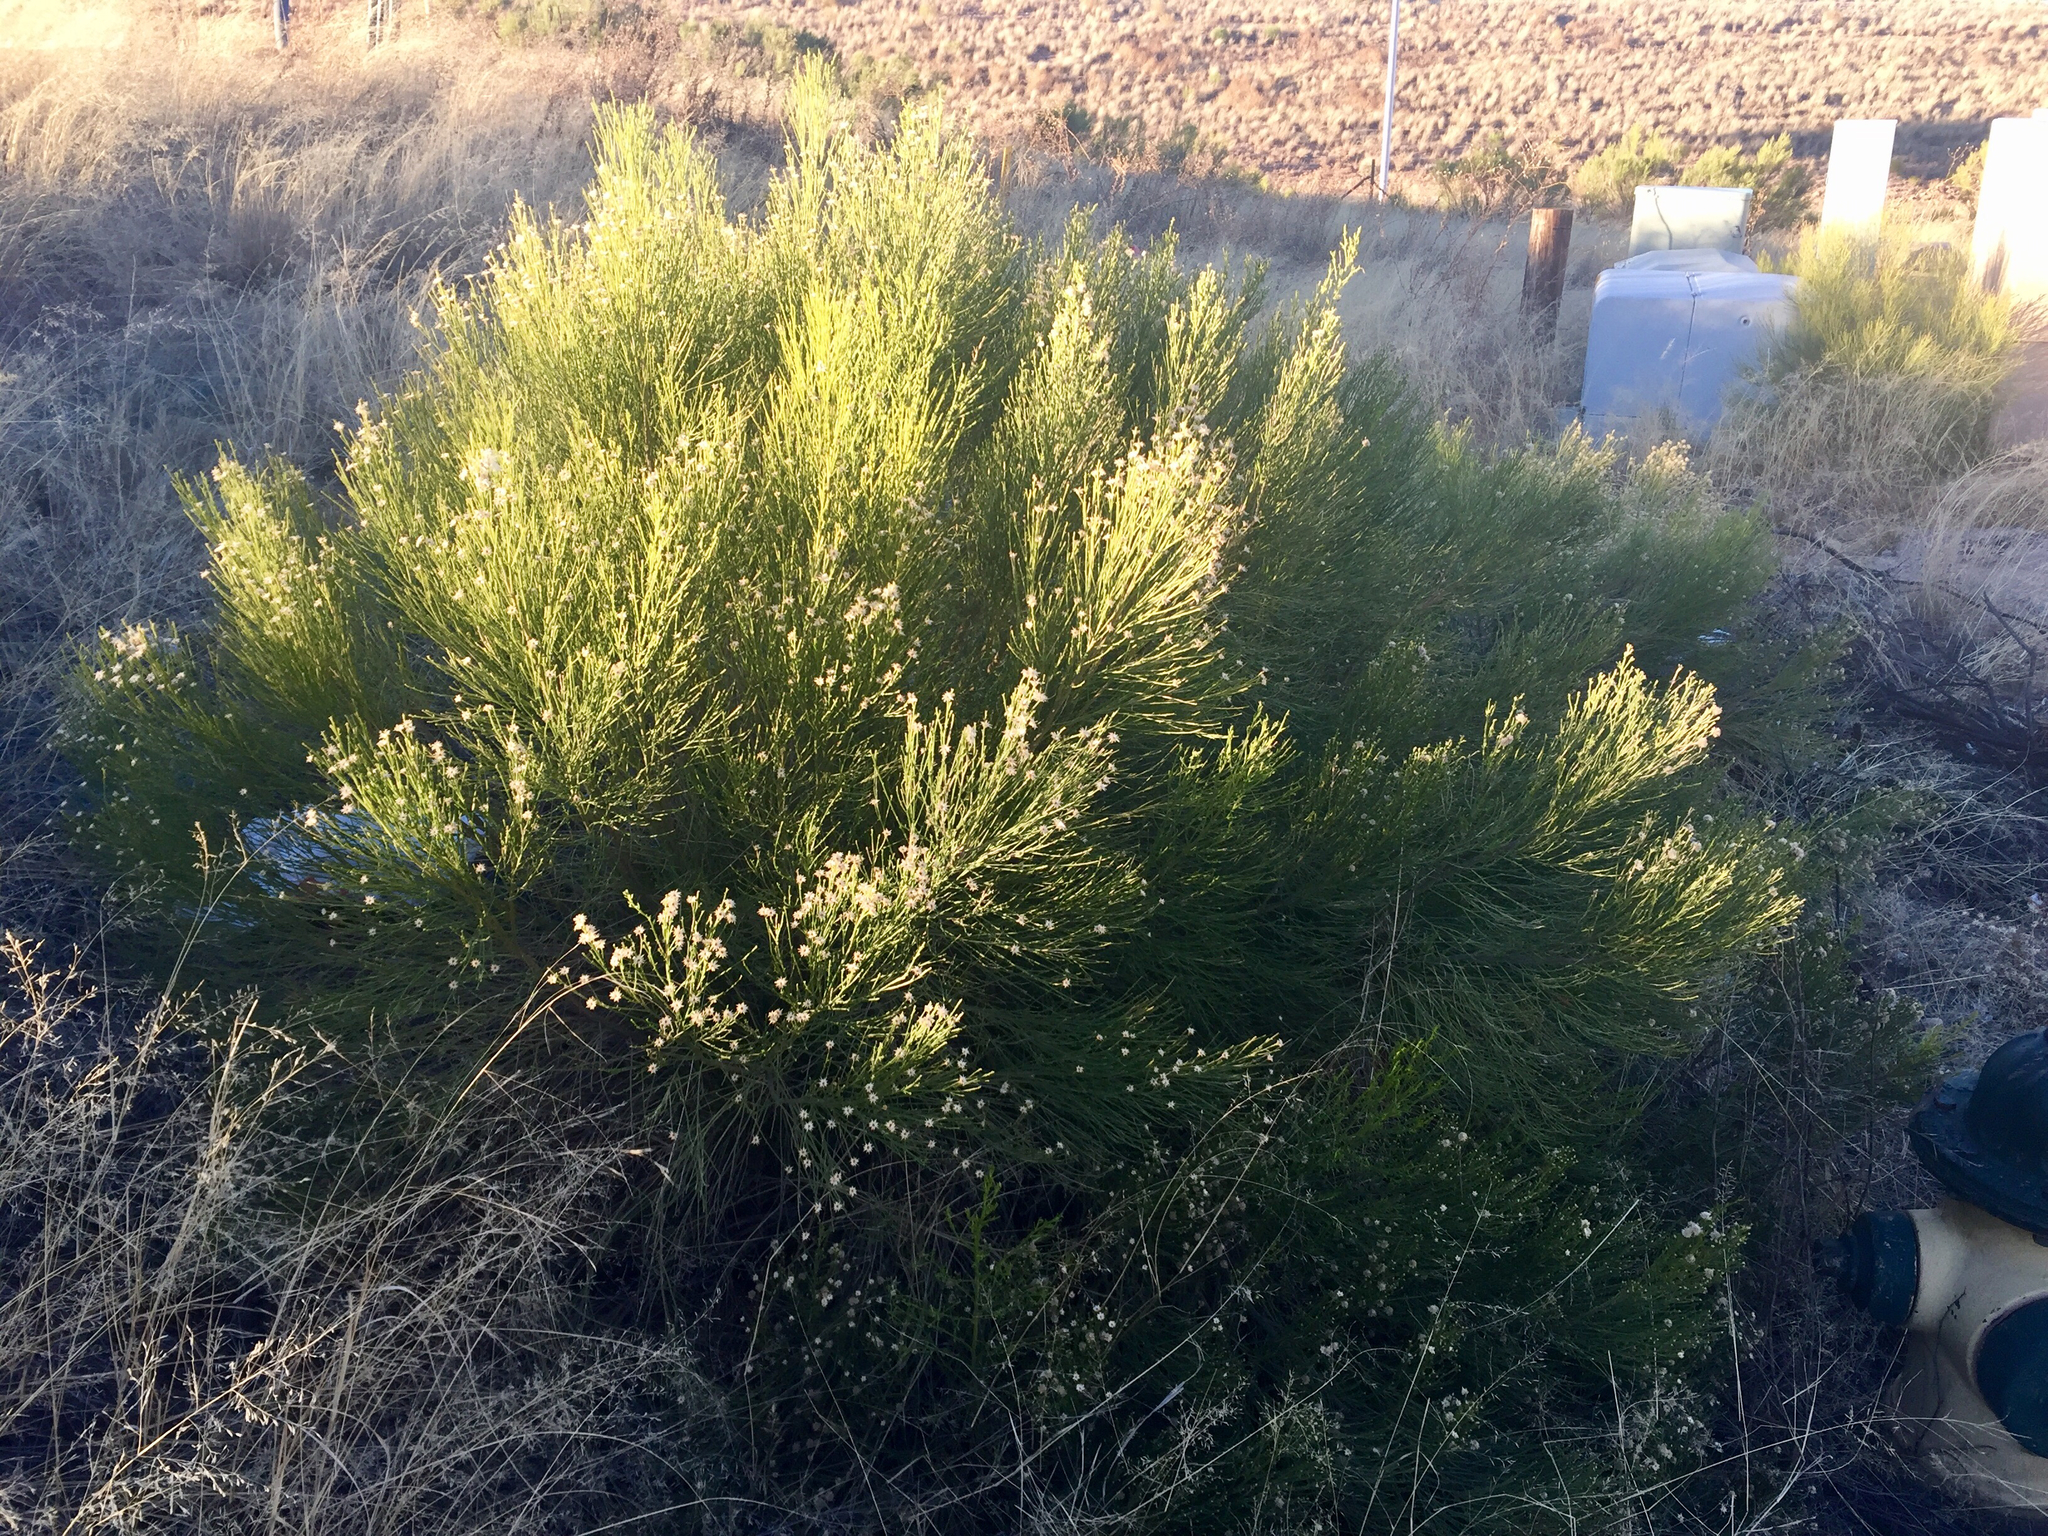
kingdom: Plantae
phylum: Tracheophyta
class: Magnoliopsida
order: Asterales
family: Asteraceae
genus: Baccharis
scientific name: Baccharis sarothroides
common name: Desert-broom
